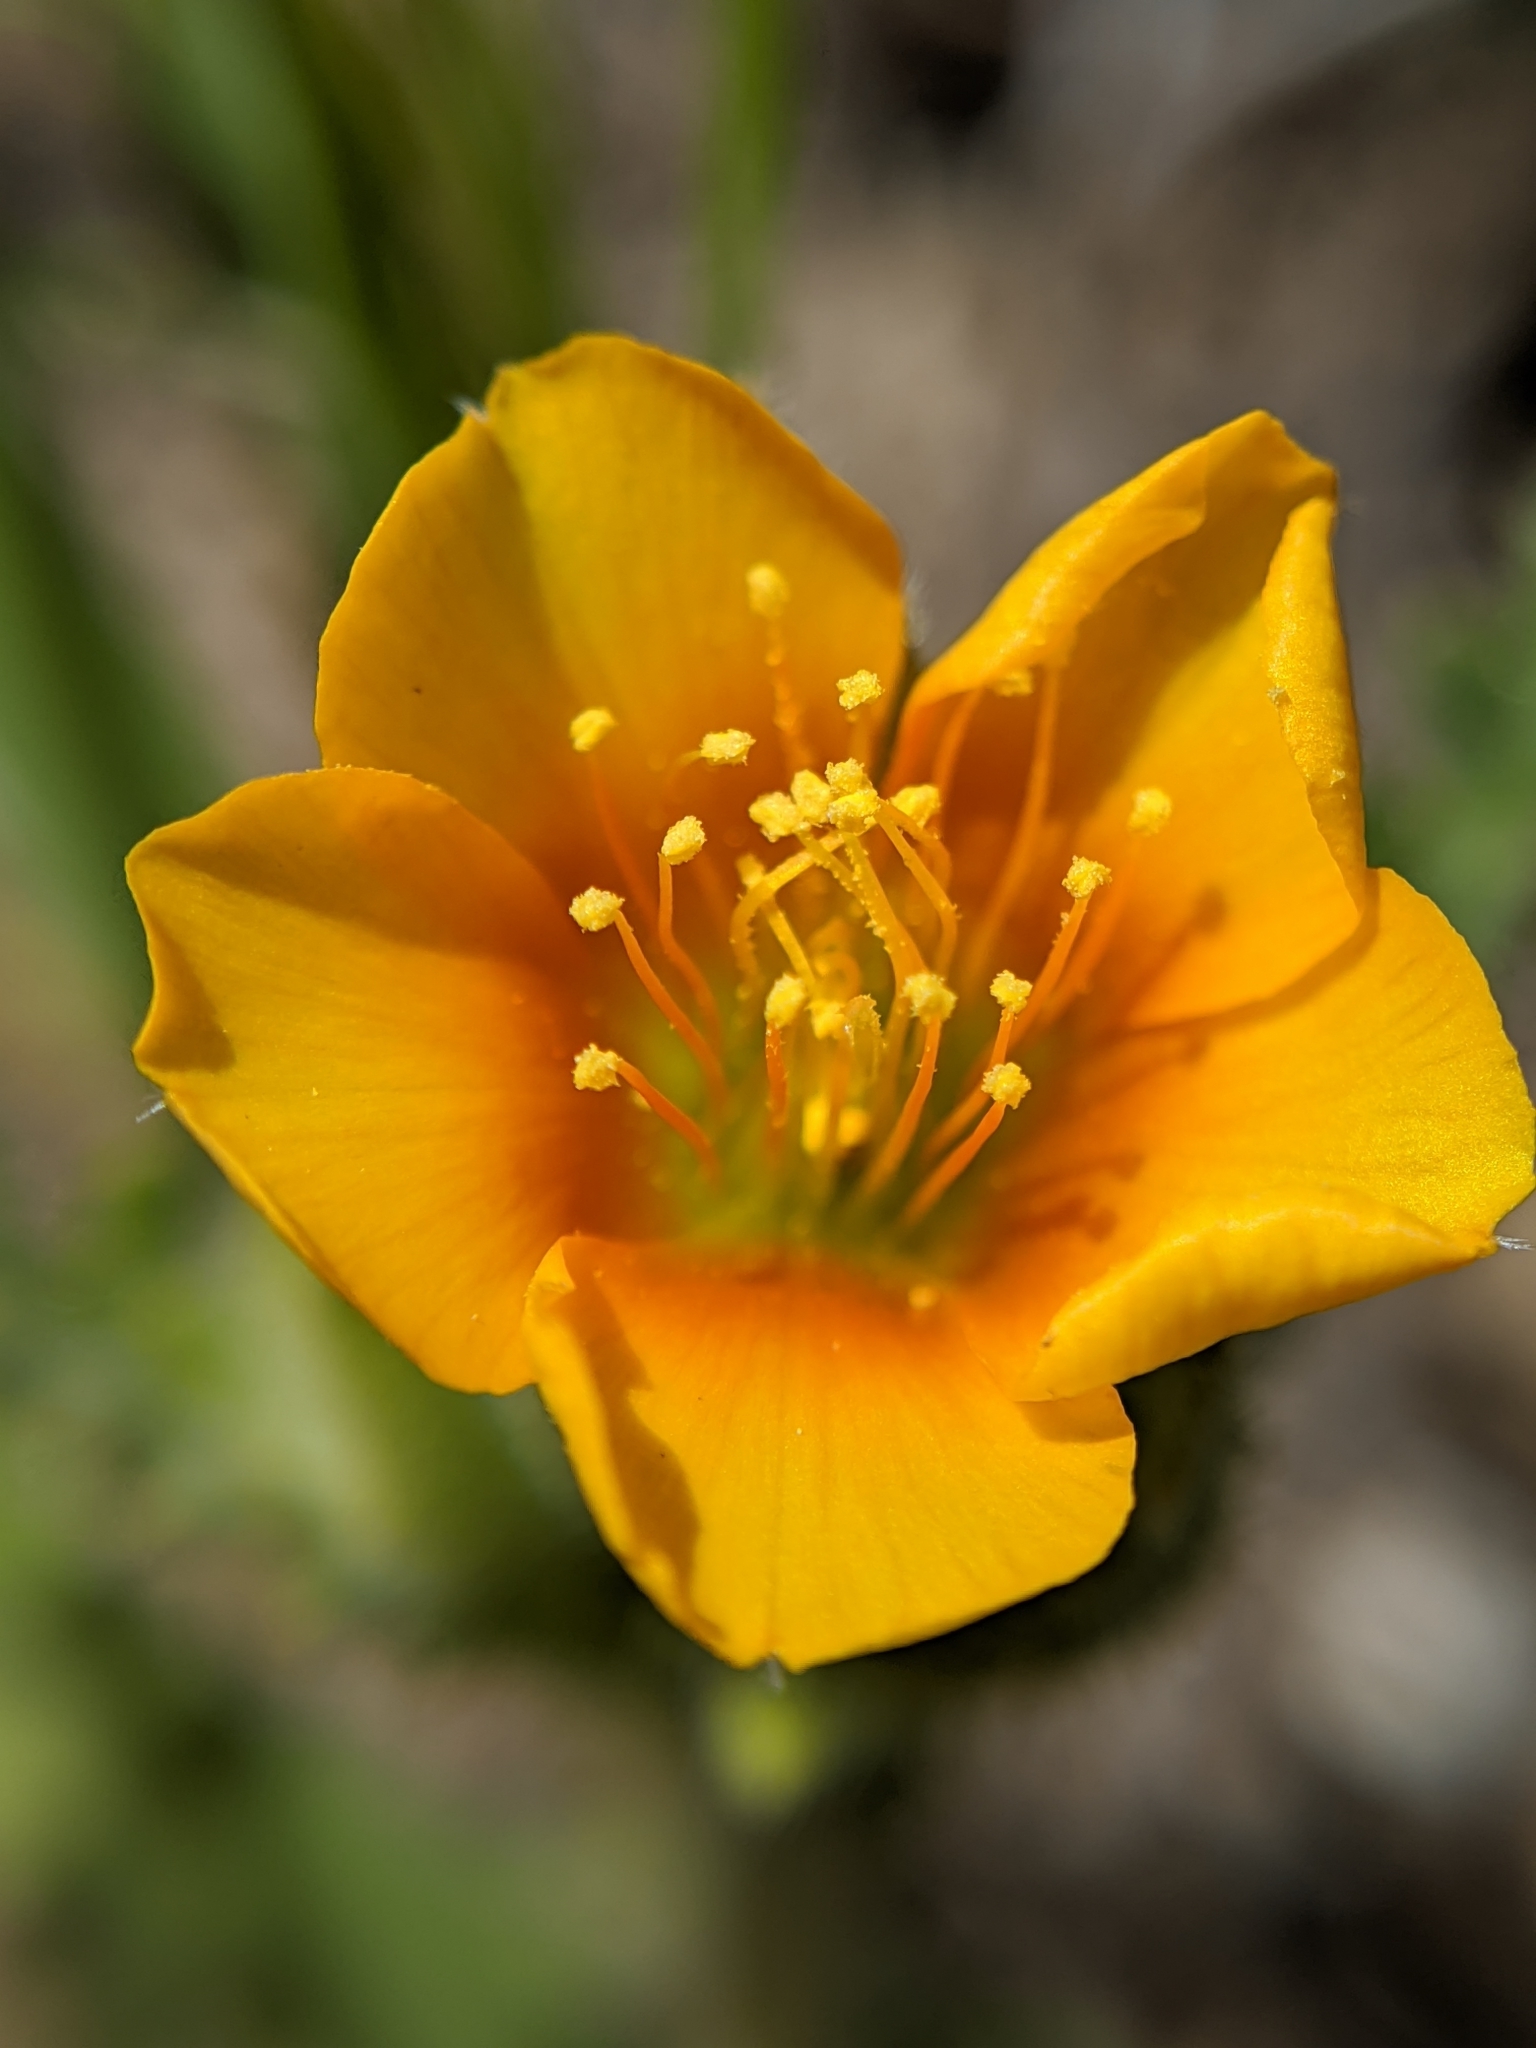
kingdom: Plantae
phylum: Tracheophyta
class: Magnoliopsida
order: Cornales
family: Loasaceae
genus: Mentzelia
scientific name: Mentzelia veatchiana
